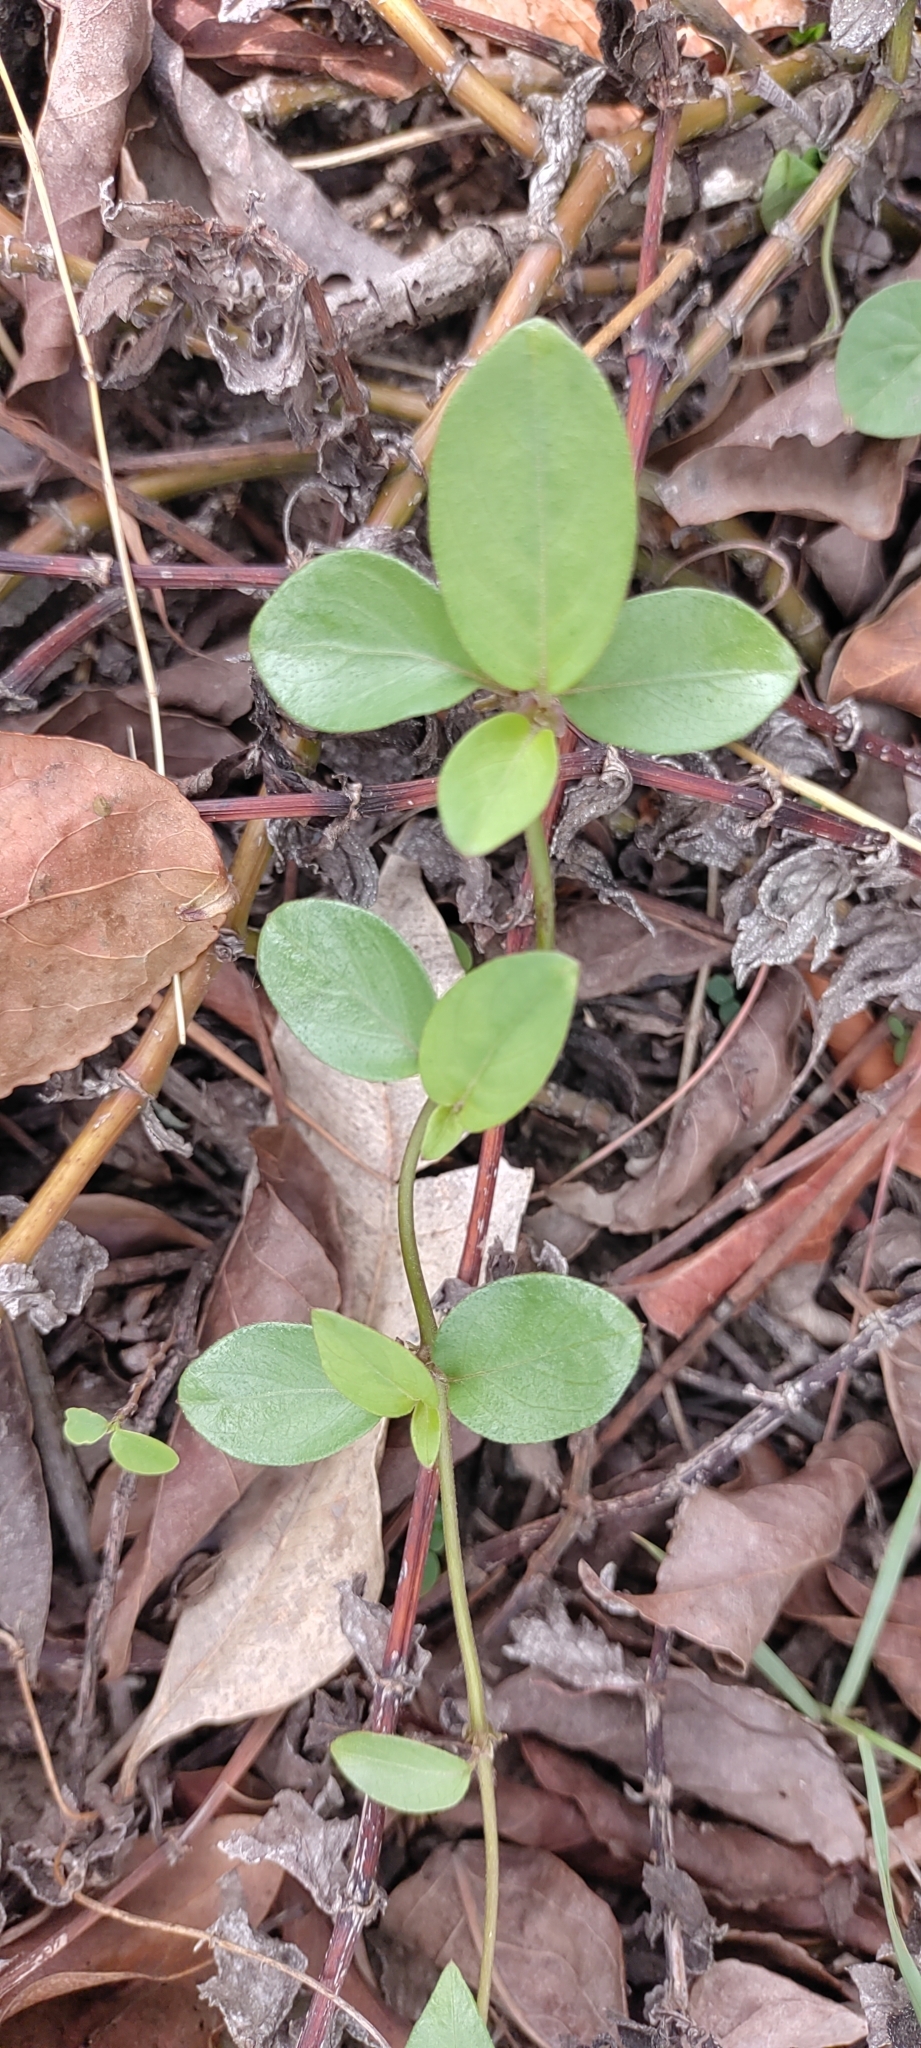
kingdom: Plantae
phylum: Tracheophyta
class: Magnoliopsida
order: Gentianales
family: Rubiaceae
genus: Paederia
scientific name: Paederia foetida
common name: Stinkvine
